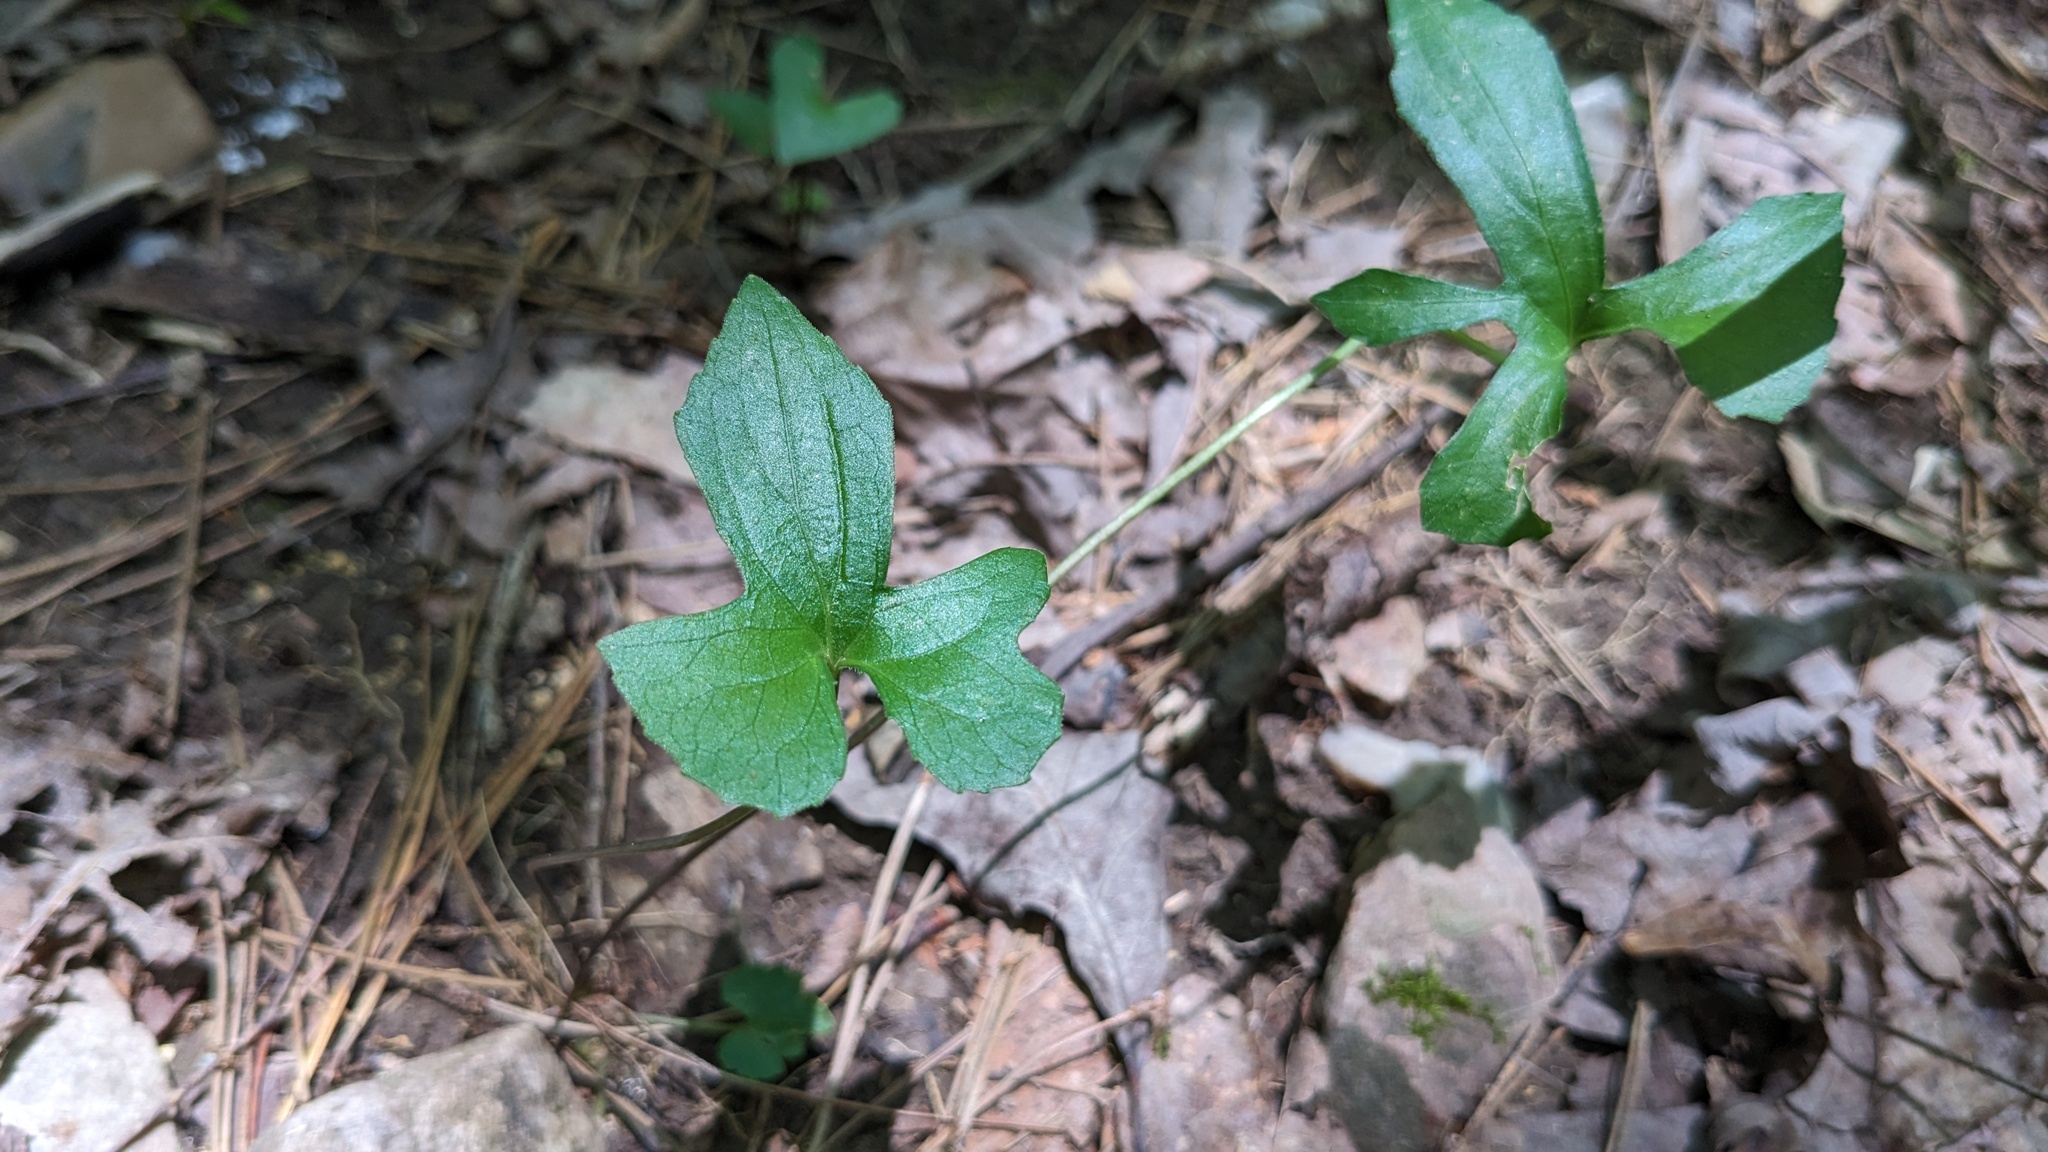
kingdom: Plantae
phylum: Tracheophyta
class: Magnoliopsida
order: Malpighiales
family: Violaceae
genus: Viola
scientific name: Viola palmata
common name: Early blue violet
